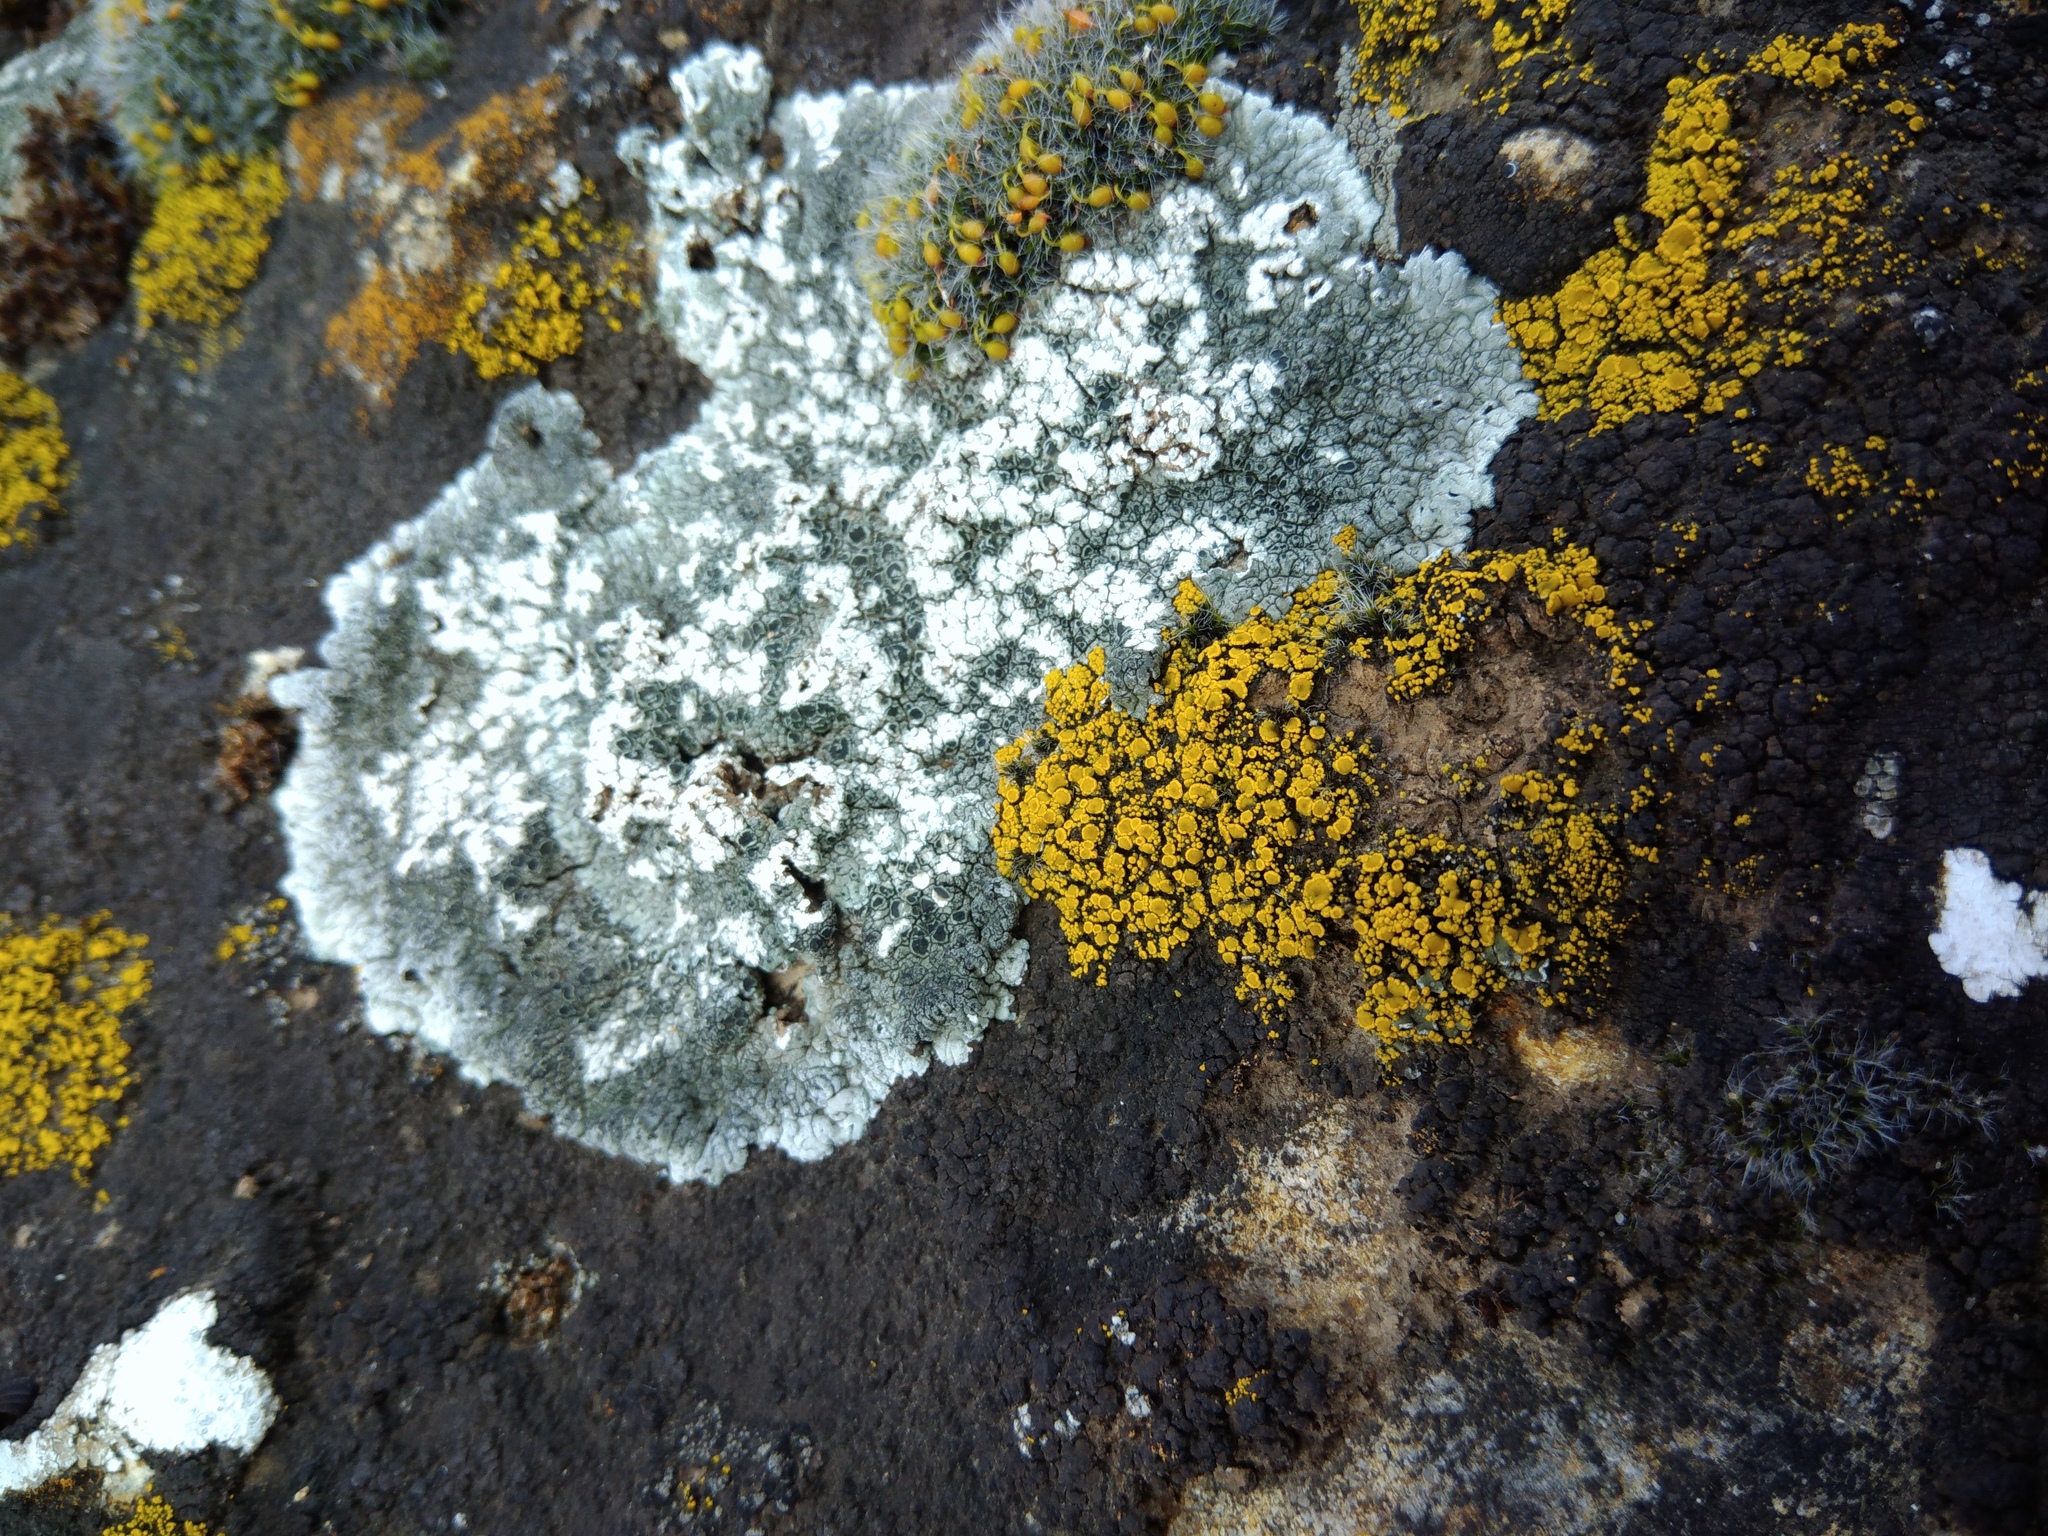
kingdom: Fungi
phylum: Ascomycota
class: Candelariomycetes
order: Candelariales
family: Candelariaceae
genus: Candelariella
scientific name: Candelariella rosulans
